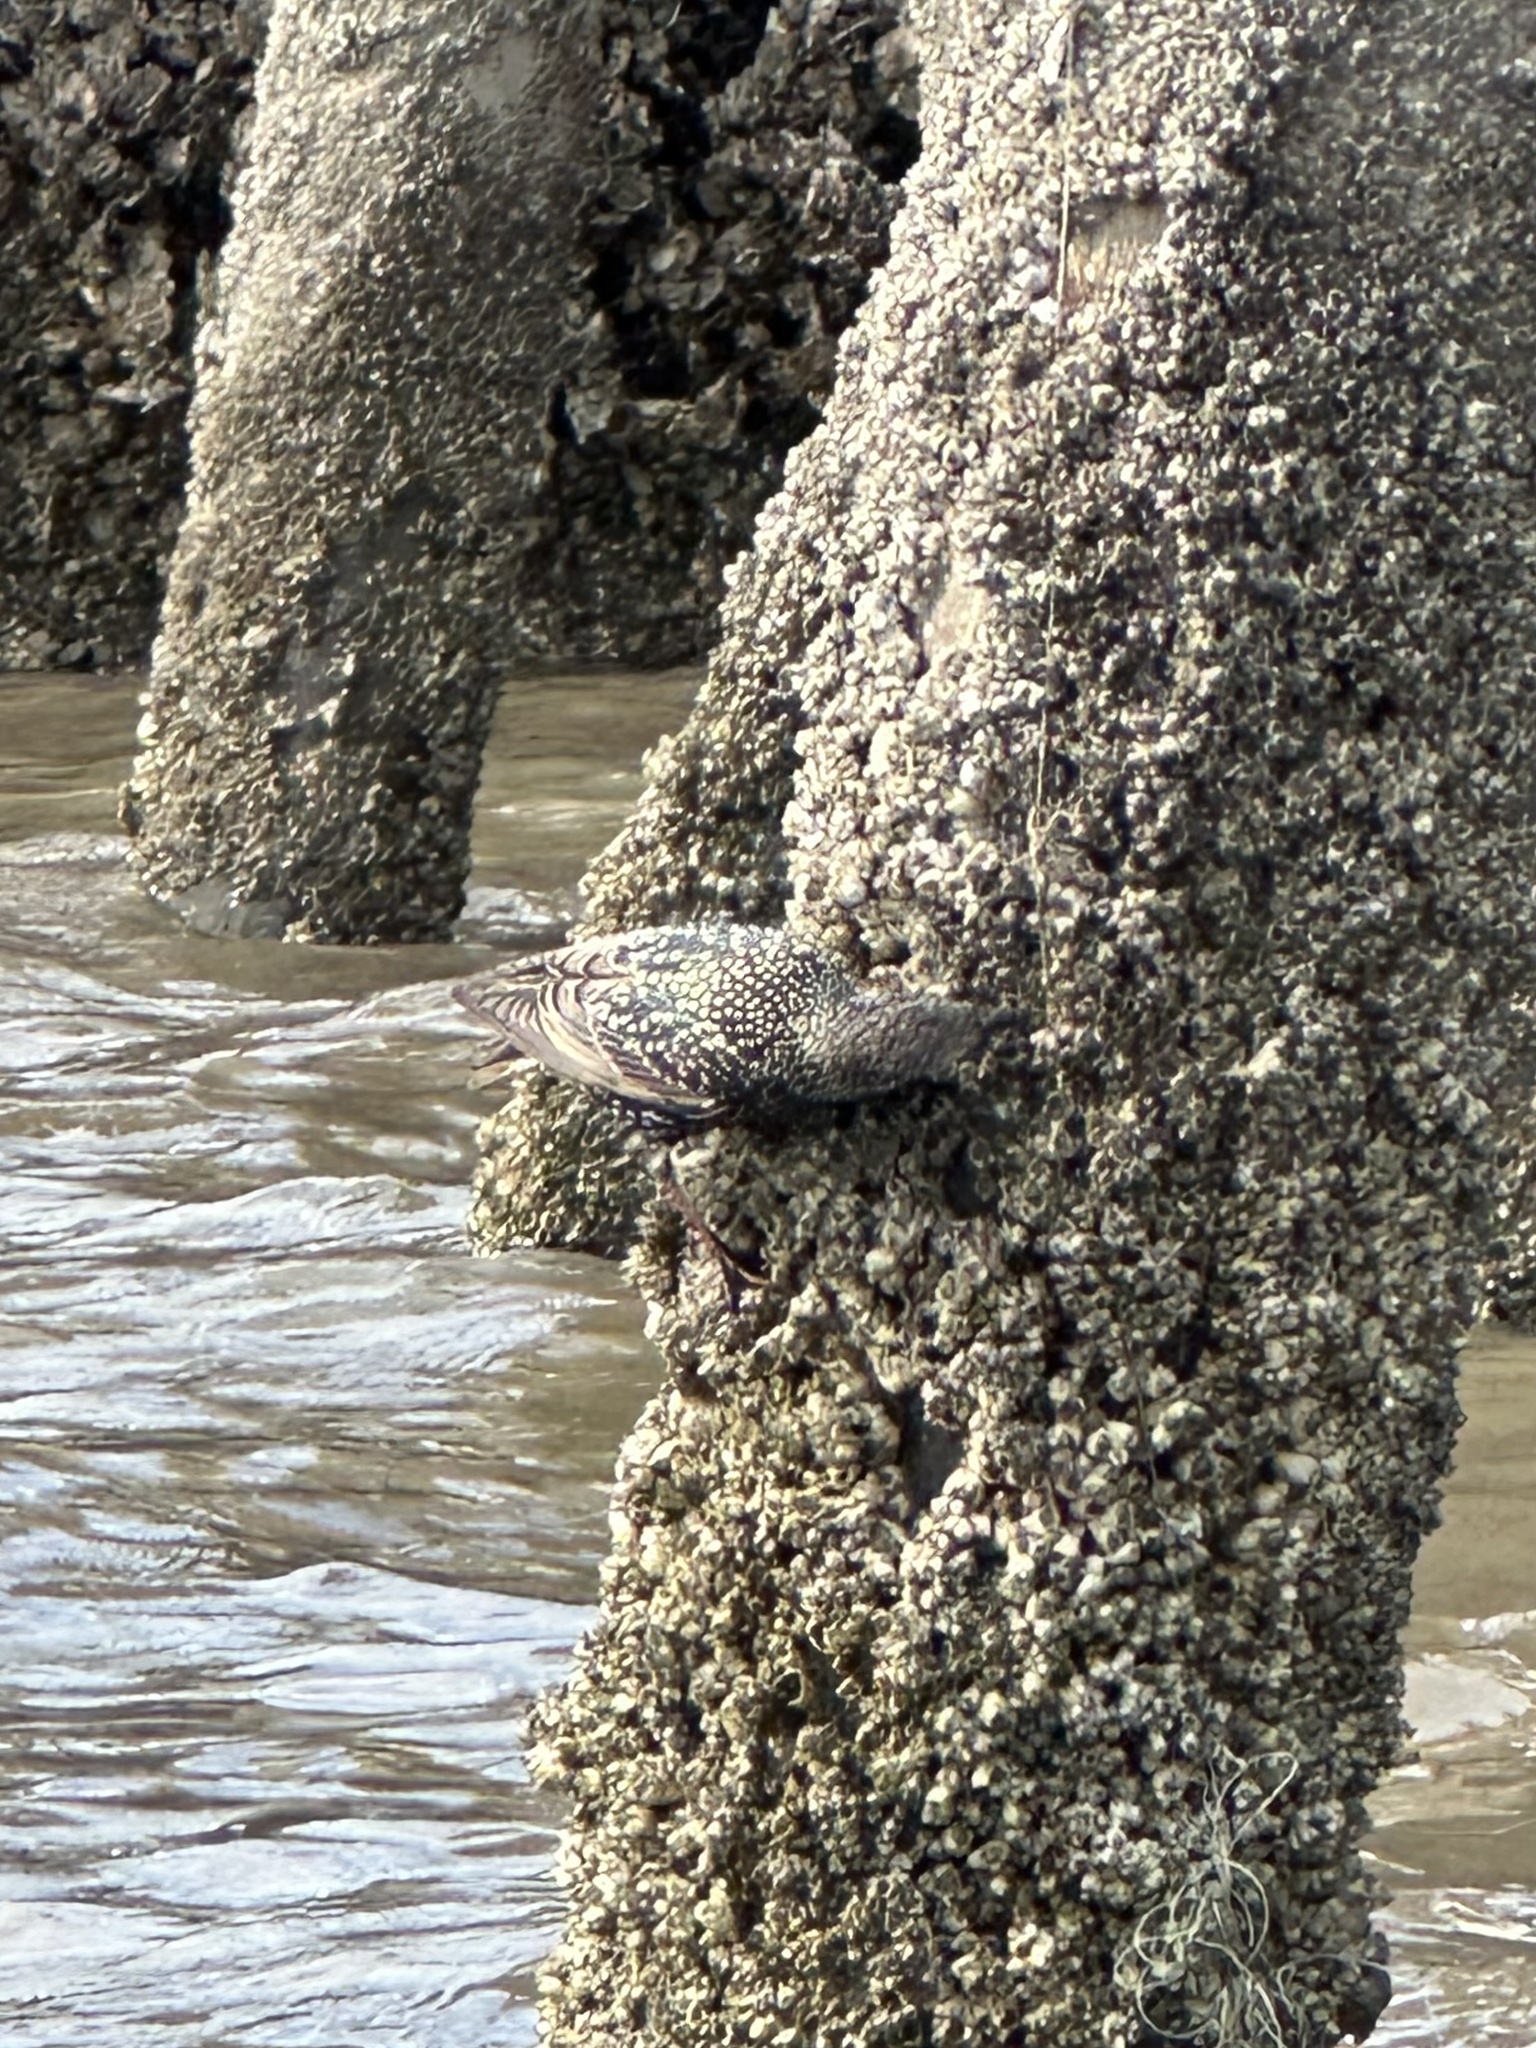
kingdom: Animalia
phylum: Chordata
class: Aves
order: Passeriformes
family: Sturnidae
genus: Sturnus
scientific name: Sturnus vulgaris
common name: Common starling
